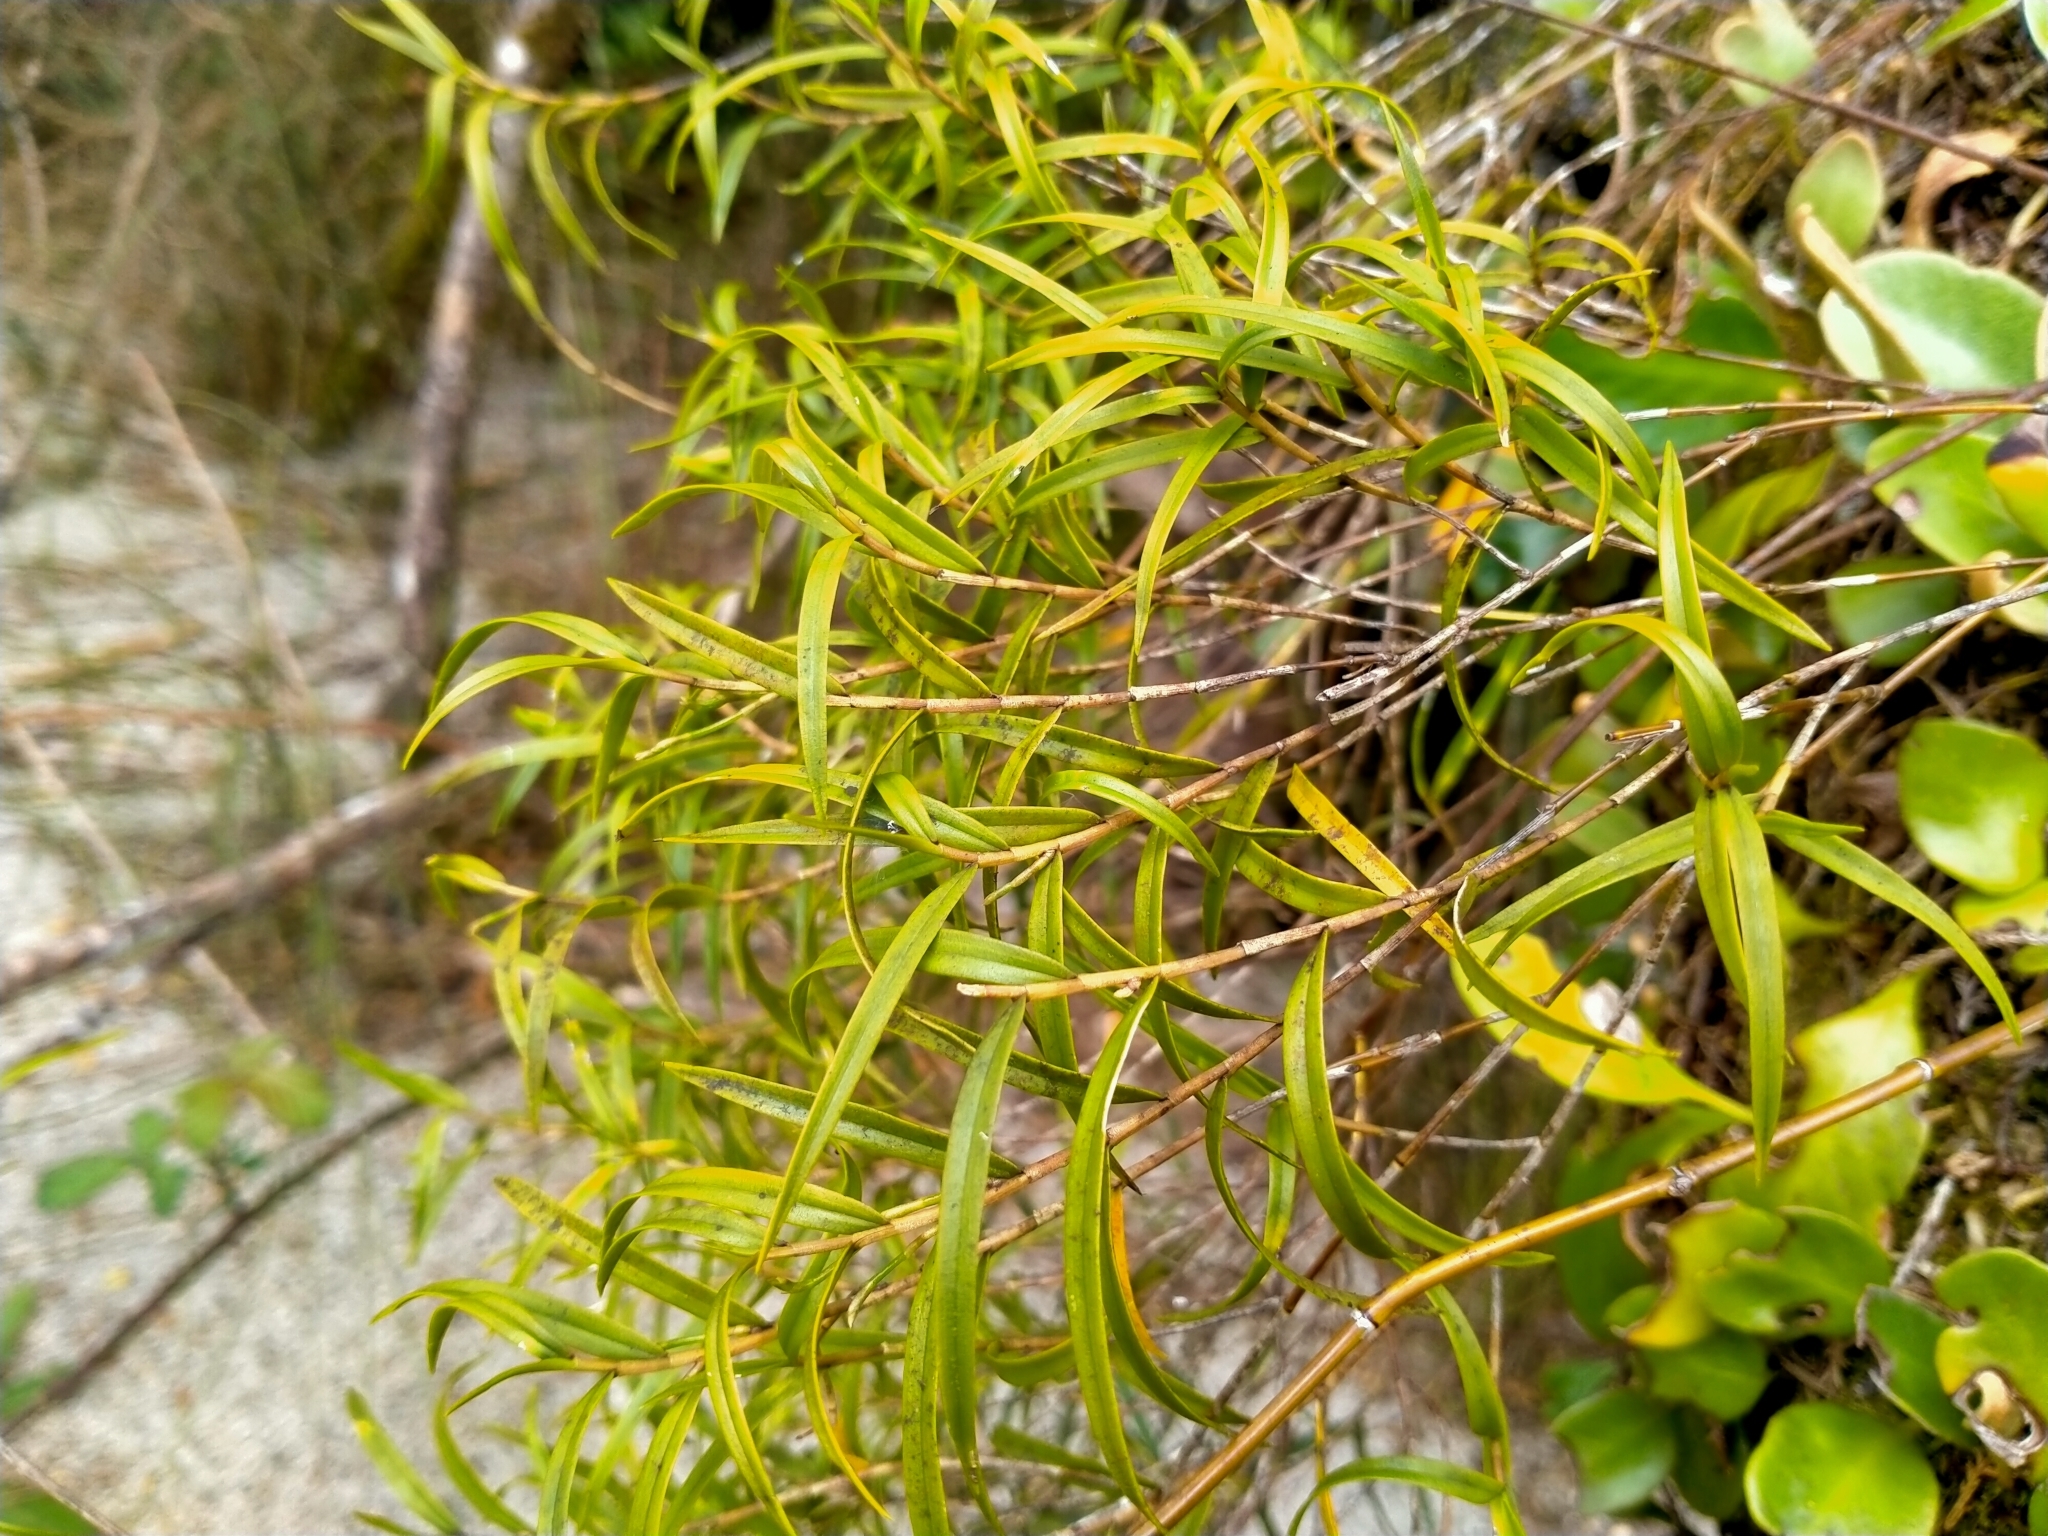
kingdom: Plantae
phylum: Tracheophyta
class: Liliopsida
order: Asparagales
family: Orchidaceae
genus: Dendrobium
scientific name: Dendrobium cunninghamii
